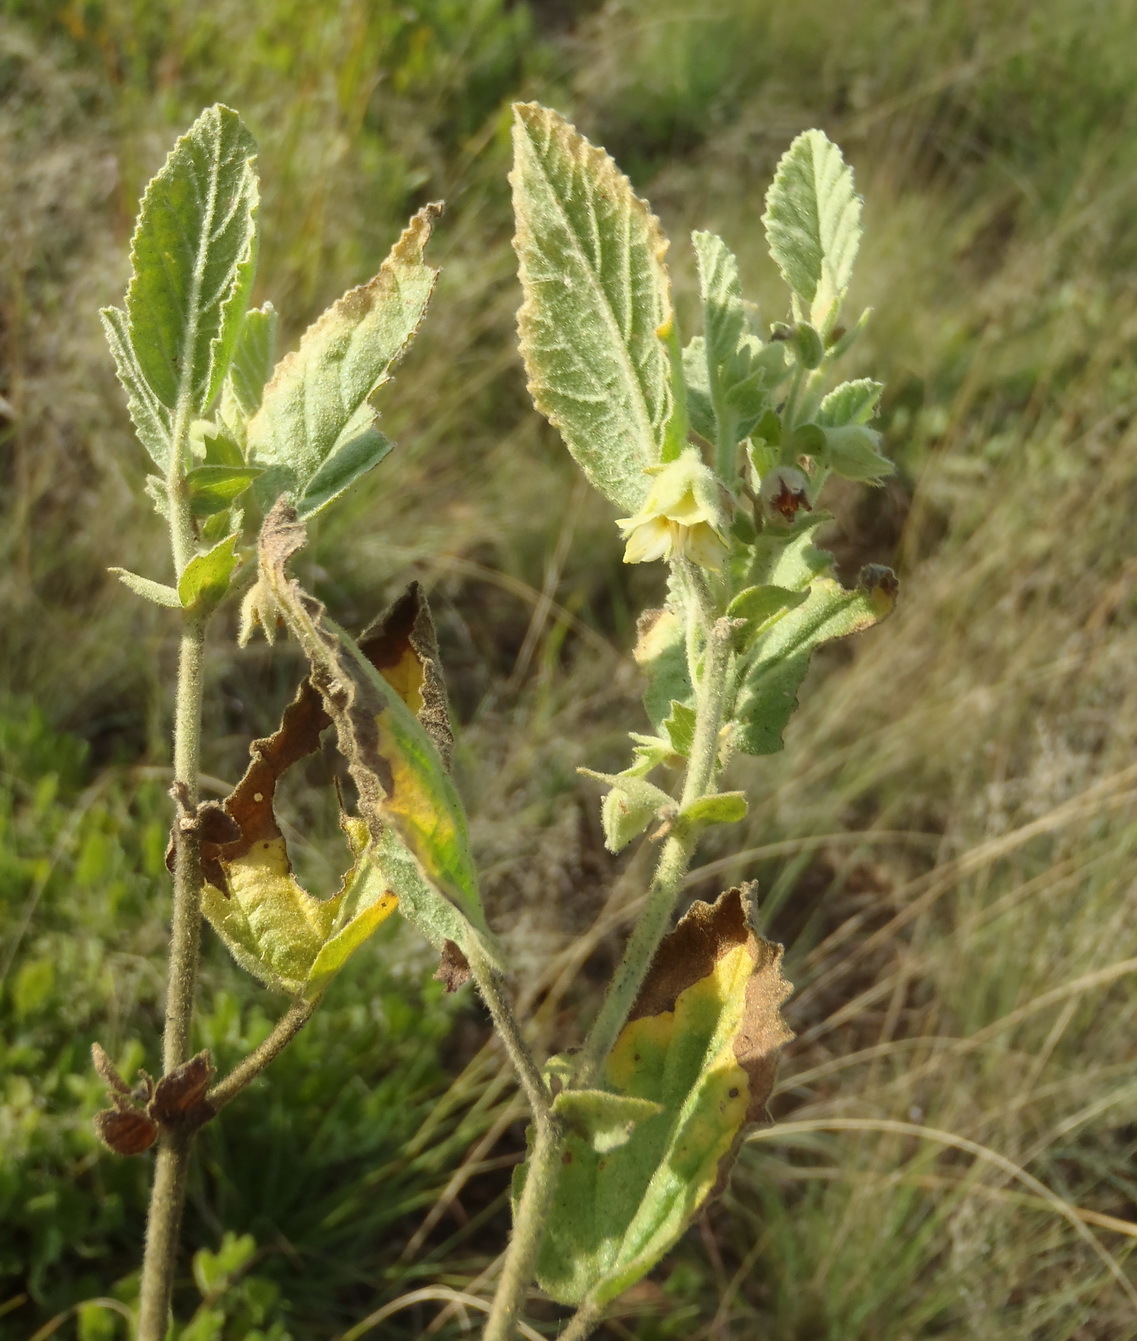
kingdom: Plantae
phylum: Tracheophyta
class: Magnoliopsida
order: Malvales
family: Malvaceae
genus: Hermannia
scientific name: Hermannia burkei
